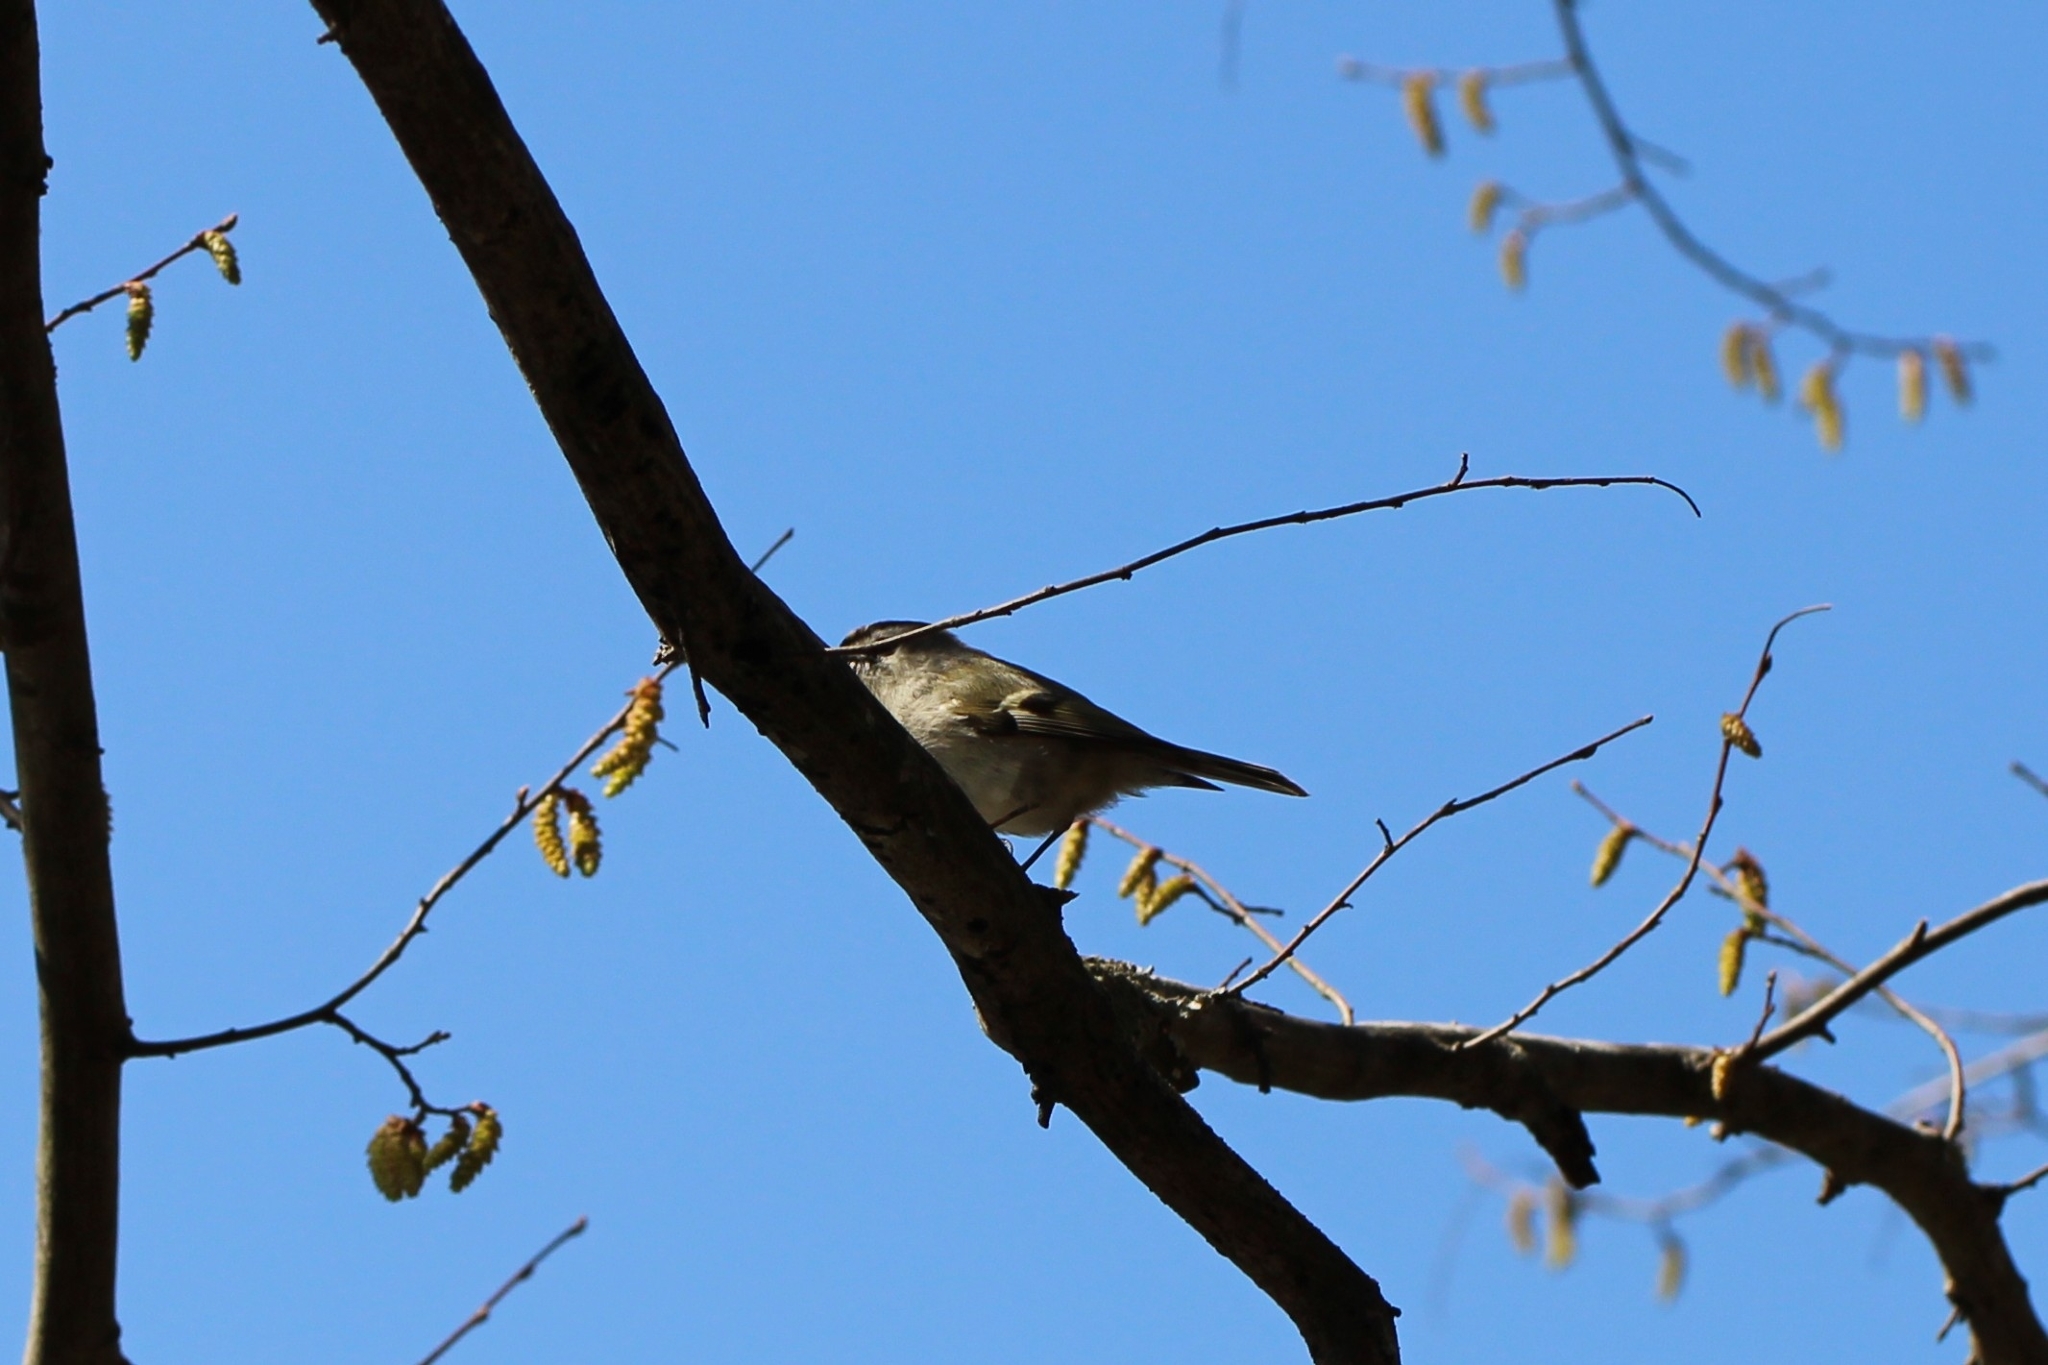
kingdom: Animalia
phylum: Chordata
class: Aves
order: Passeriformes
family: Regulidae
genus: Regulus
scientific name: Regulus satrapa
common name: Golden-crowned kinglet
